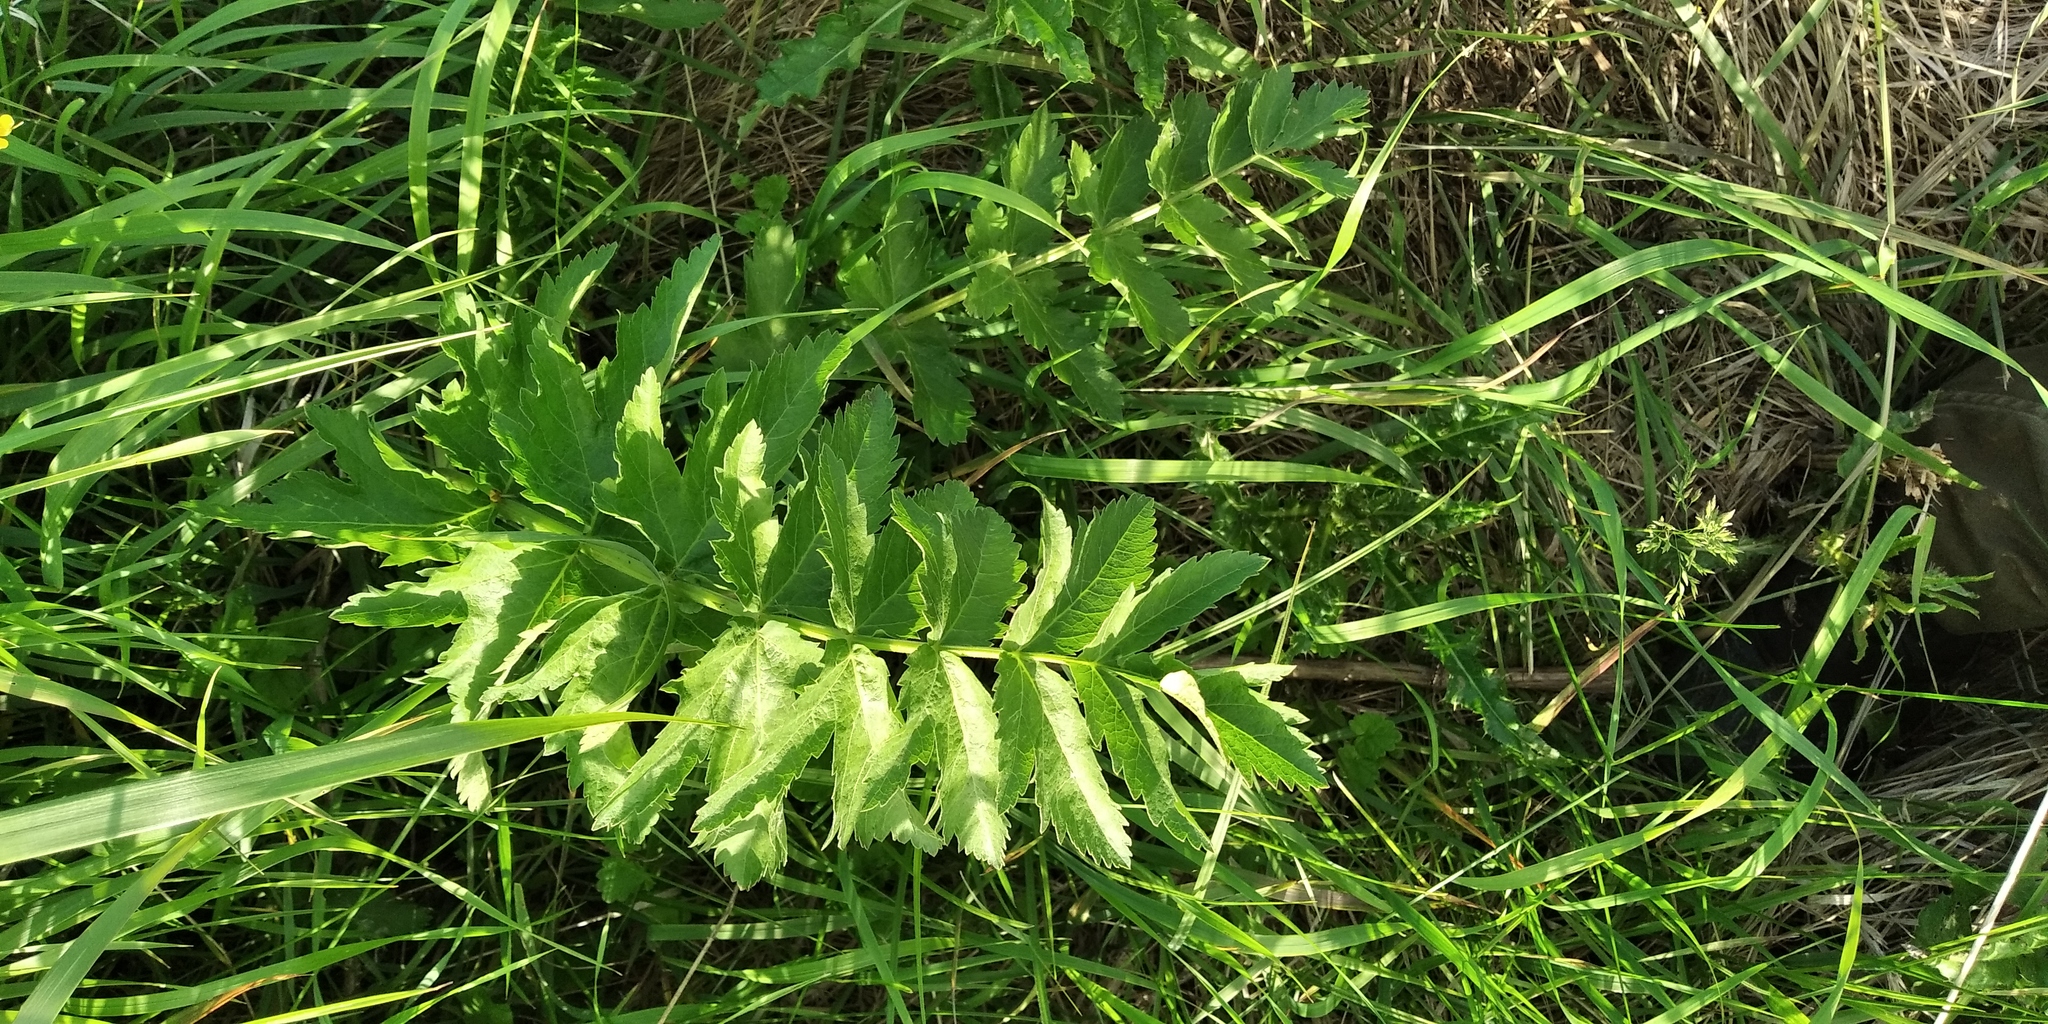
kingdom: Plantae
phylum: Tracheophyta
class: Magnoliopsida
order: Apiales
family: Apiaceae
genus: Pastinaca
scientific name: Pastinaca sativa
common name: Wild parsnip
